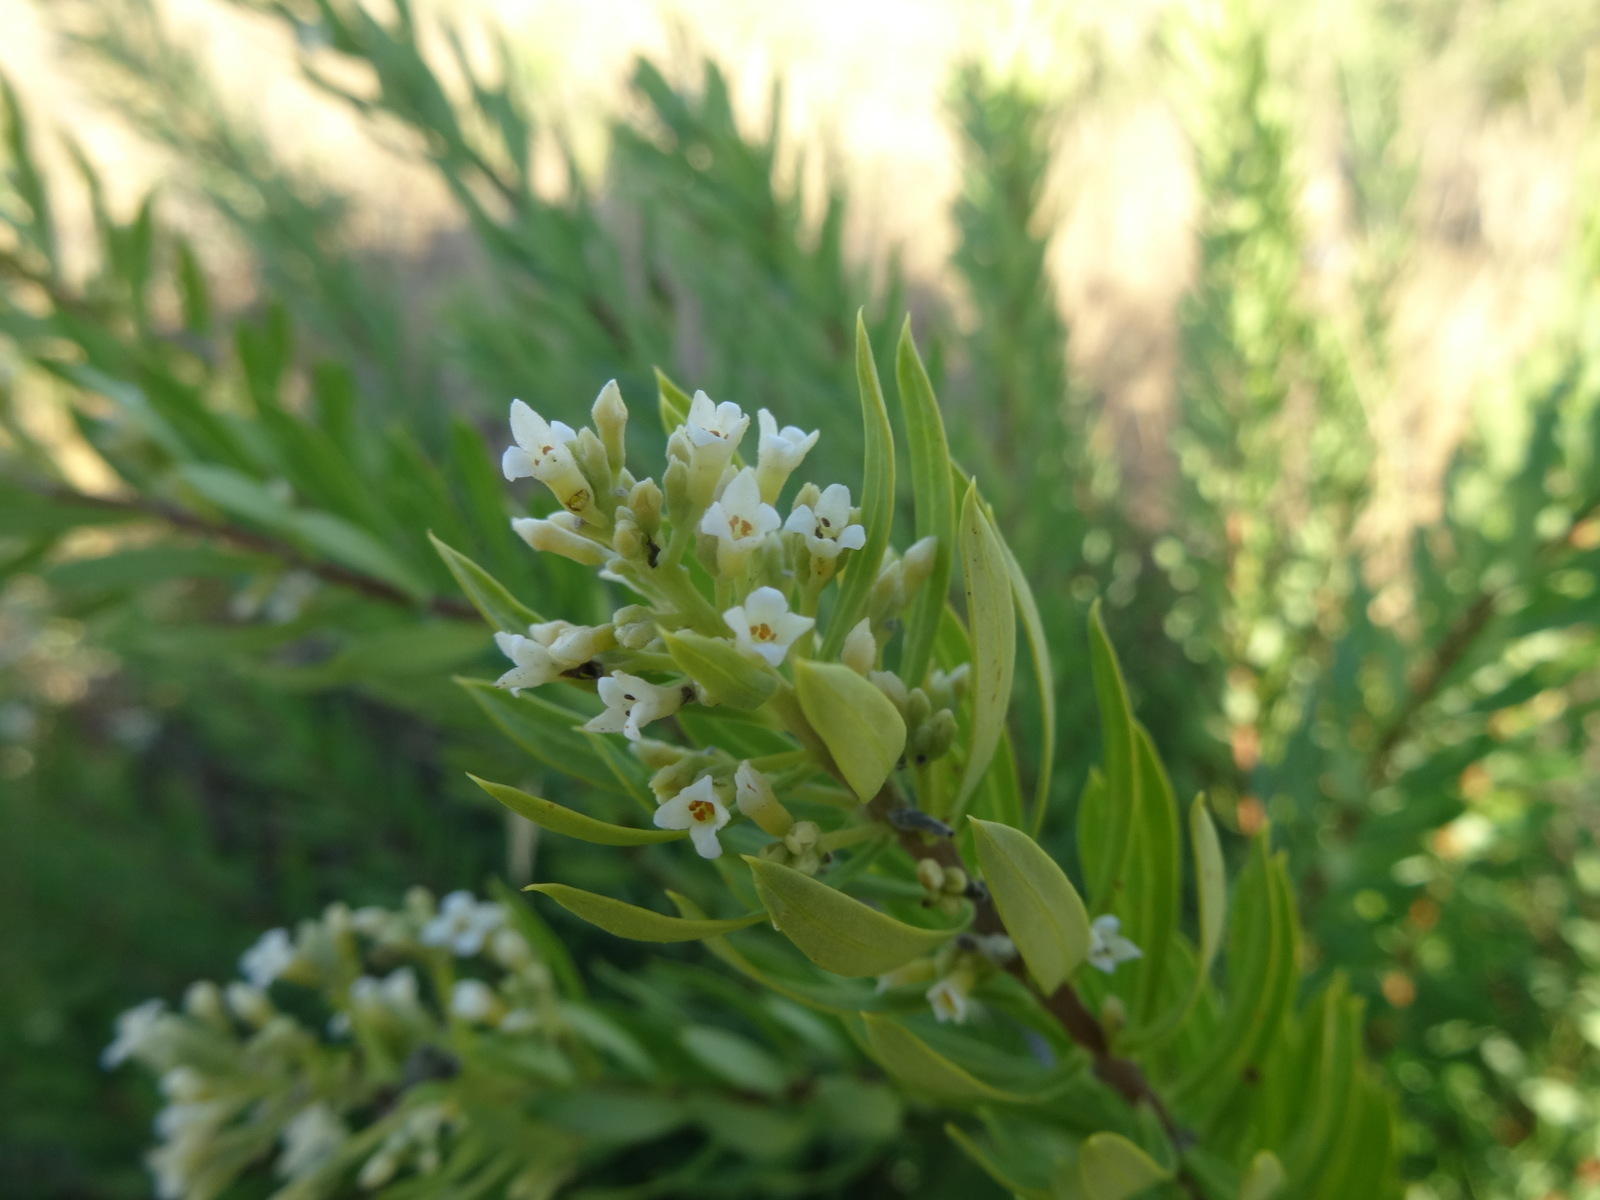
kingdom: Plantae
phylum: Tracheophyta
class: Magnoliopsida
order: Malvales
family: Thymelaeaceae
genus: Daphne
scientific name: Daphne gnidium
